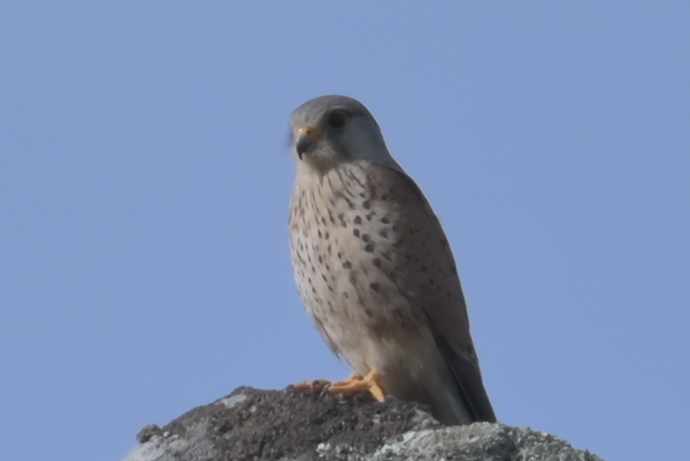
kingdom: Animalia
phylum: Chordata
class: Aves
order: Falconiformes
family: Falconidae
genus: Falco
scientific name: Falco tinnunculus
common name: Common kestrel
